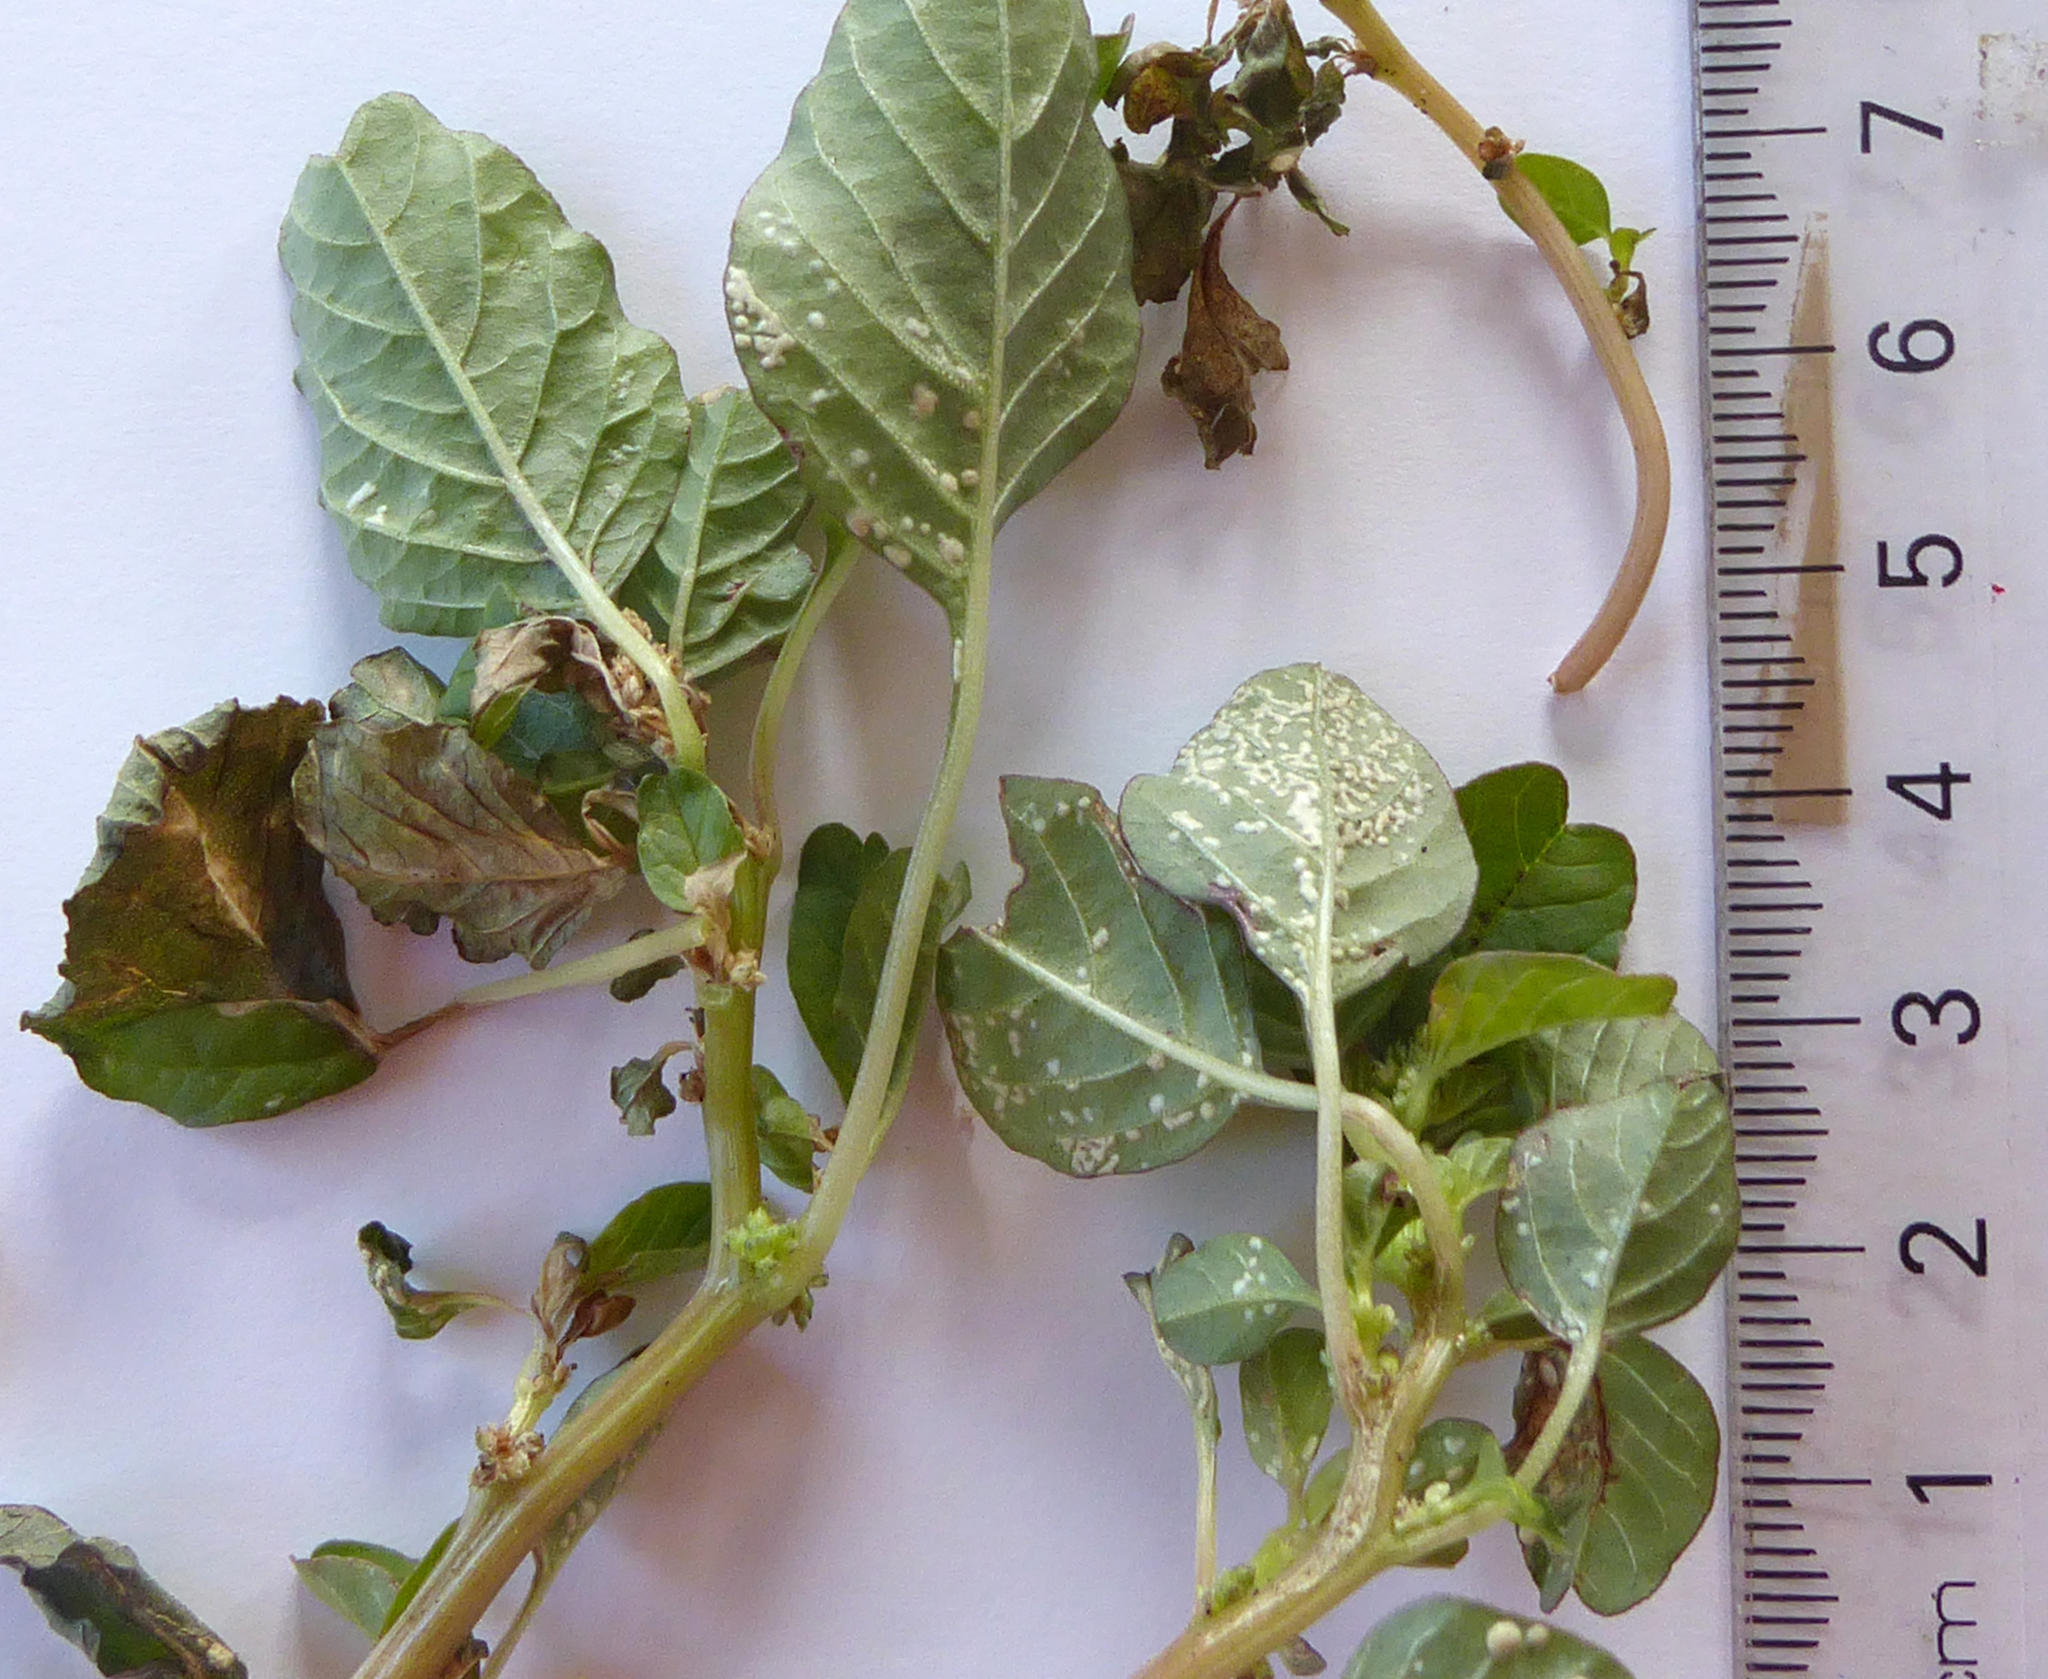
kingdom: Chromista
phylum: Oomycota
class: Peronosporea
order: Albuginales
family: Albuginaceae
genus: Wilsoniana
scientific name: Wilsoniana bliti
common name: White blister rust disease
